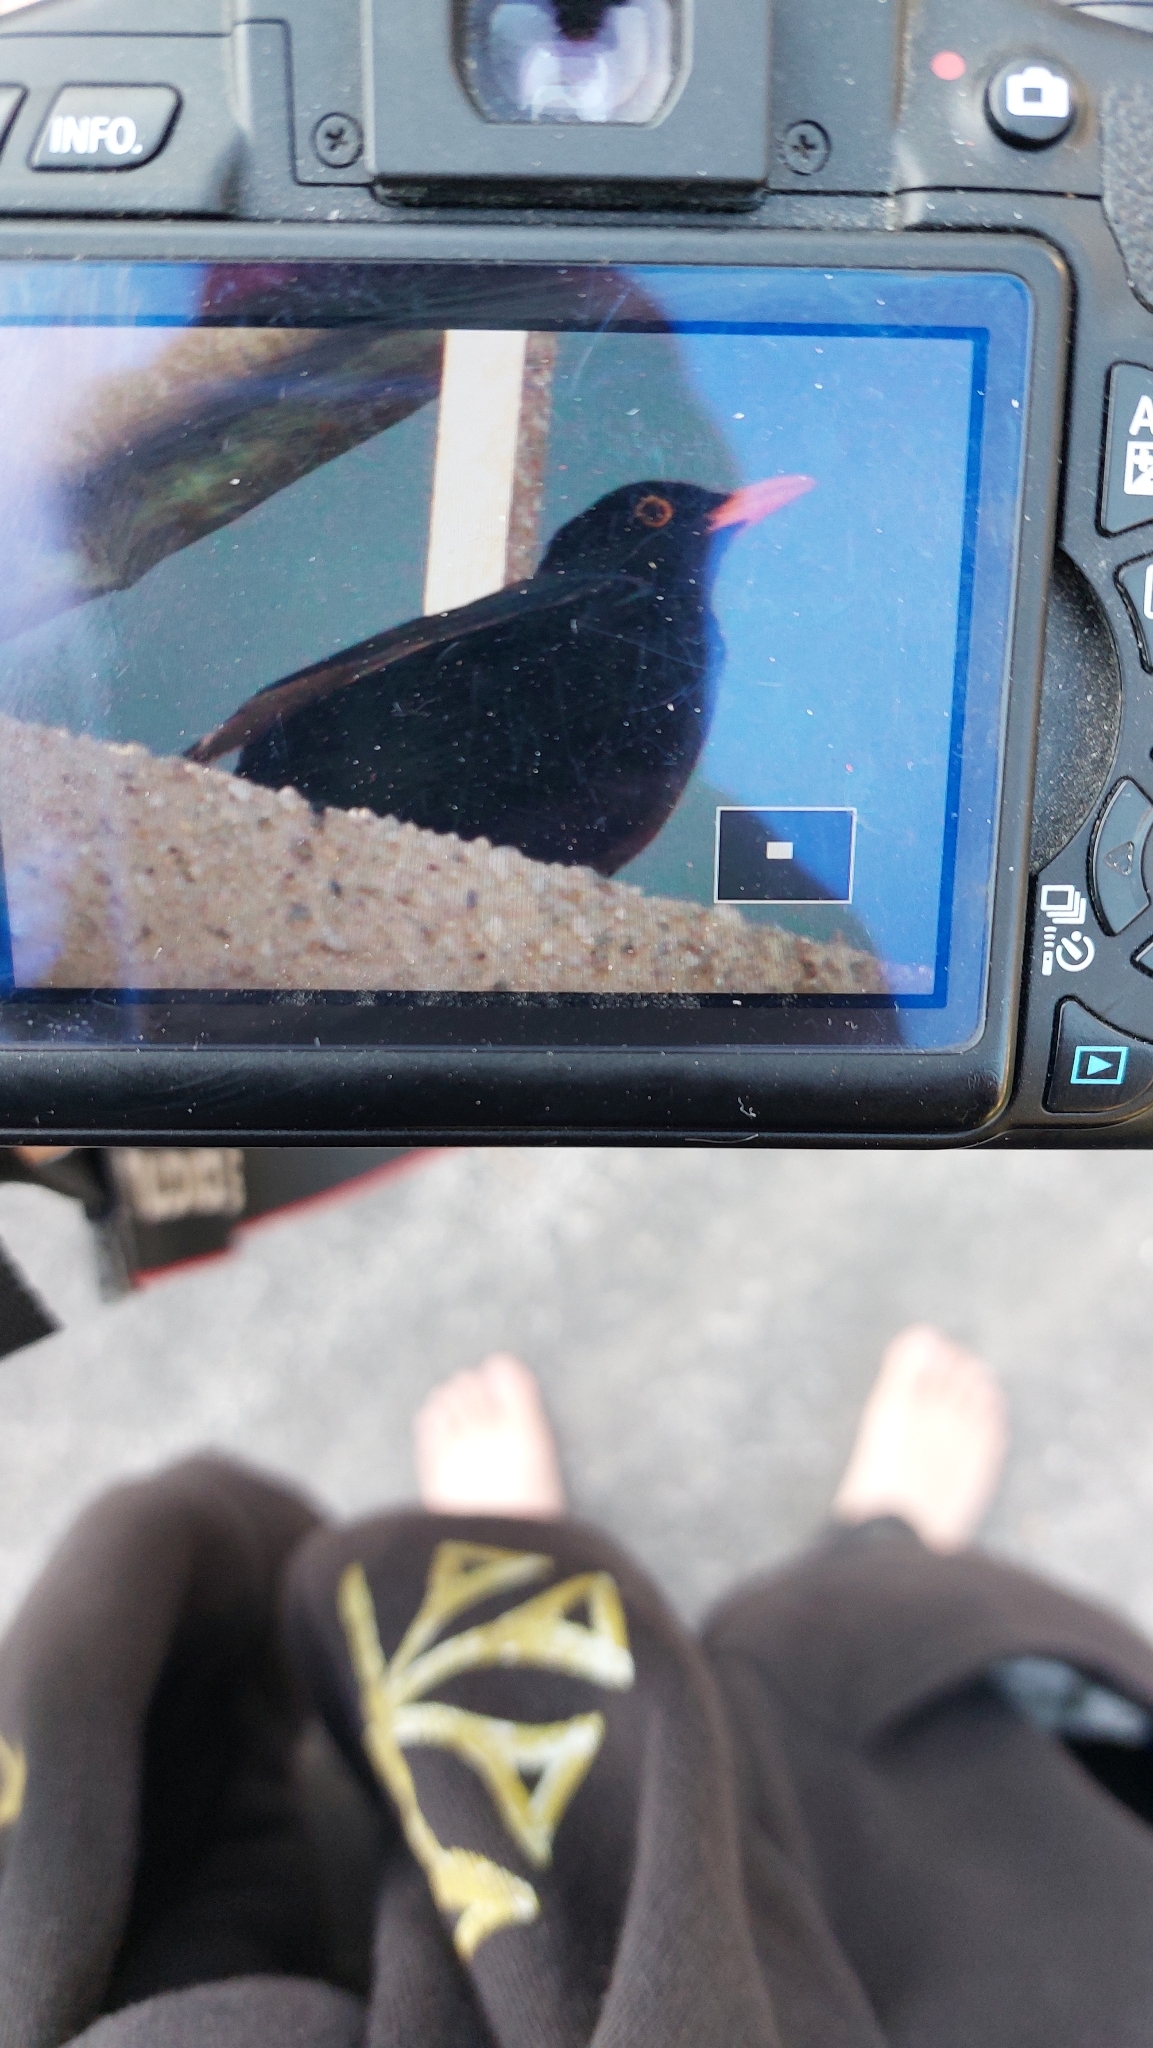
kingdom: Animalia
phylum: Chordata
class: Aves
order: Passeriformes
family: Turdidae
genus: Turdus
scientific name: Turdus merula
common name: Common blackbird
